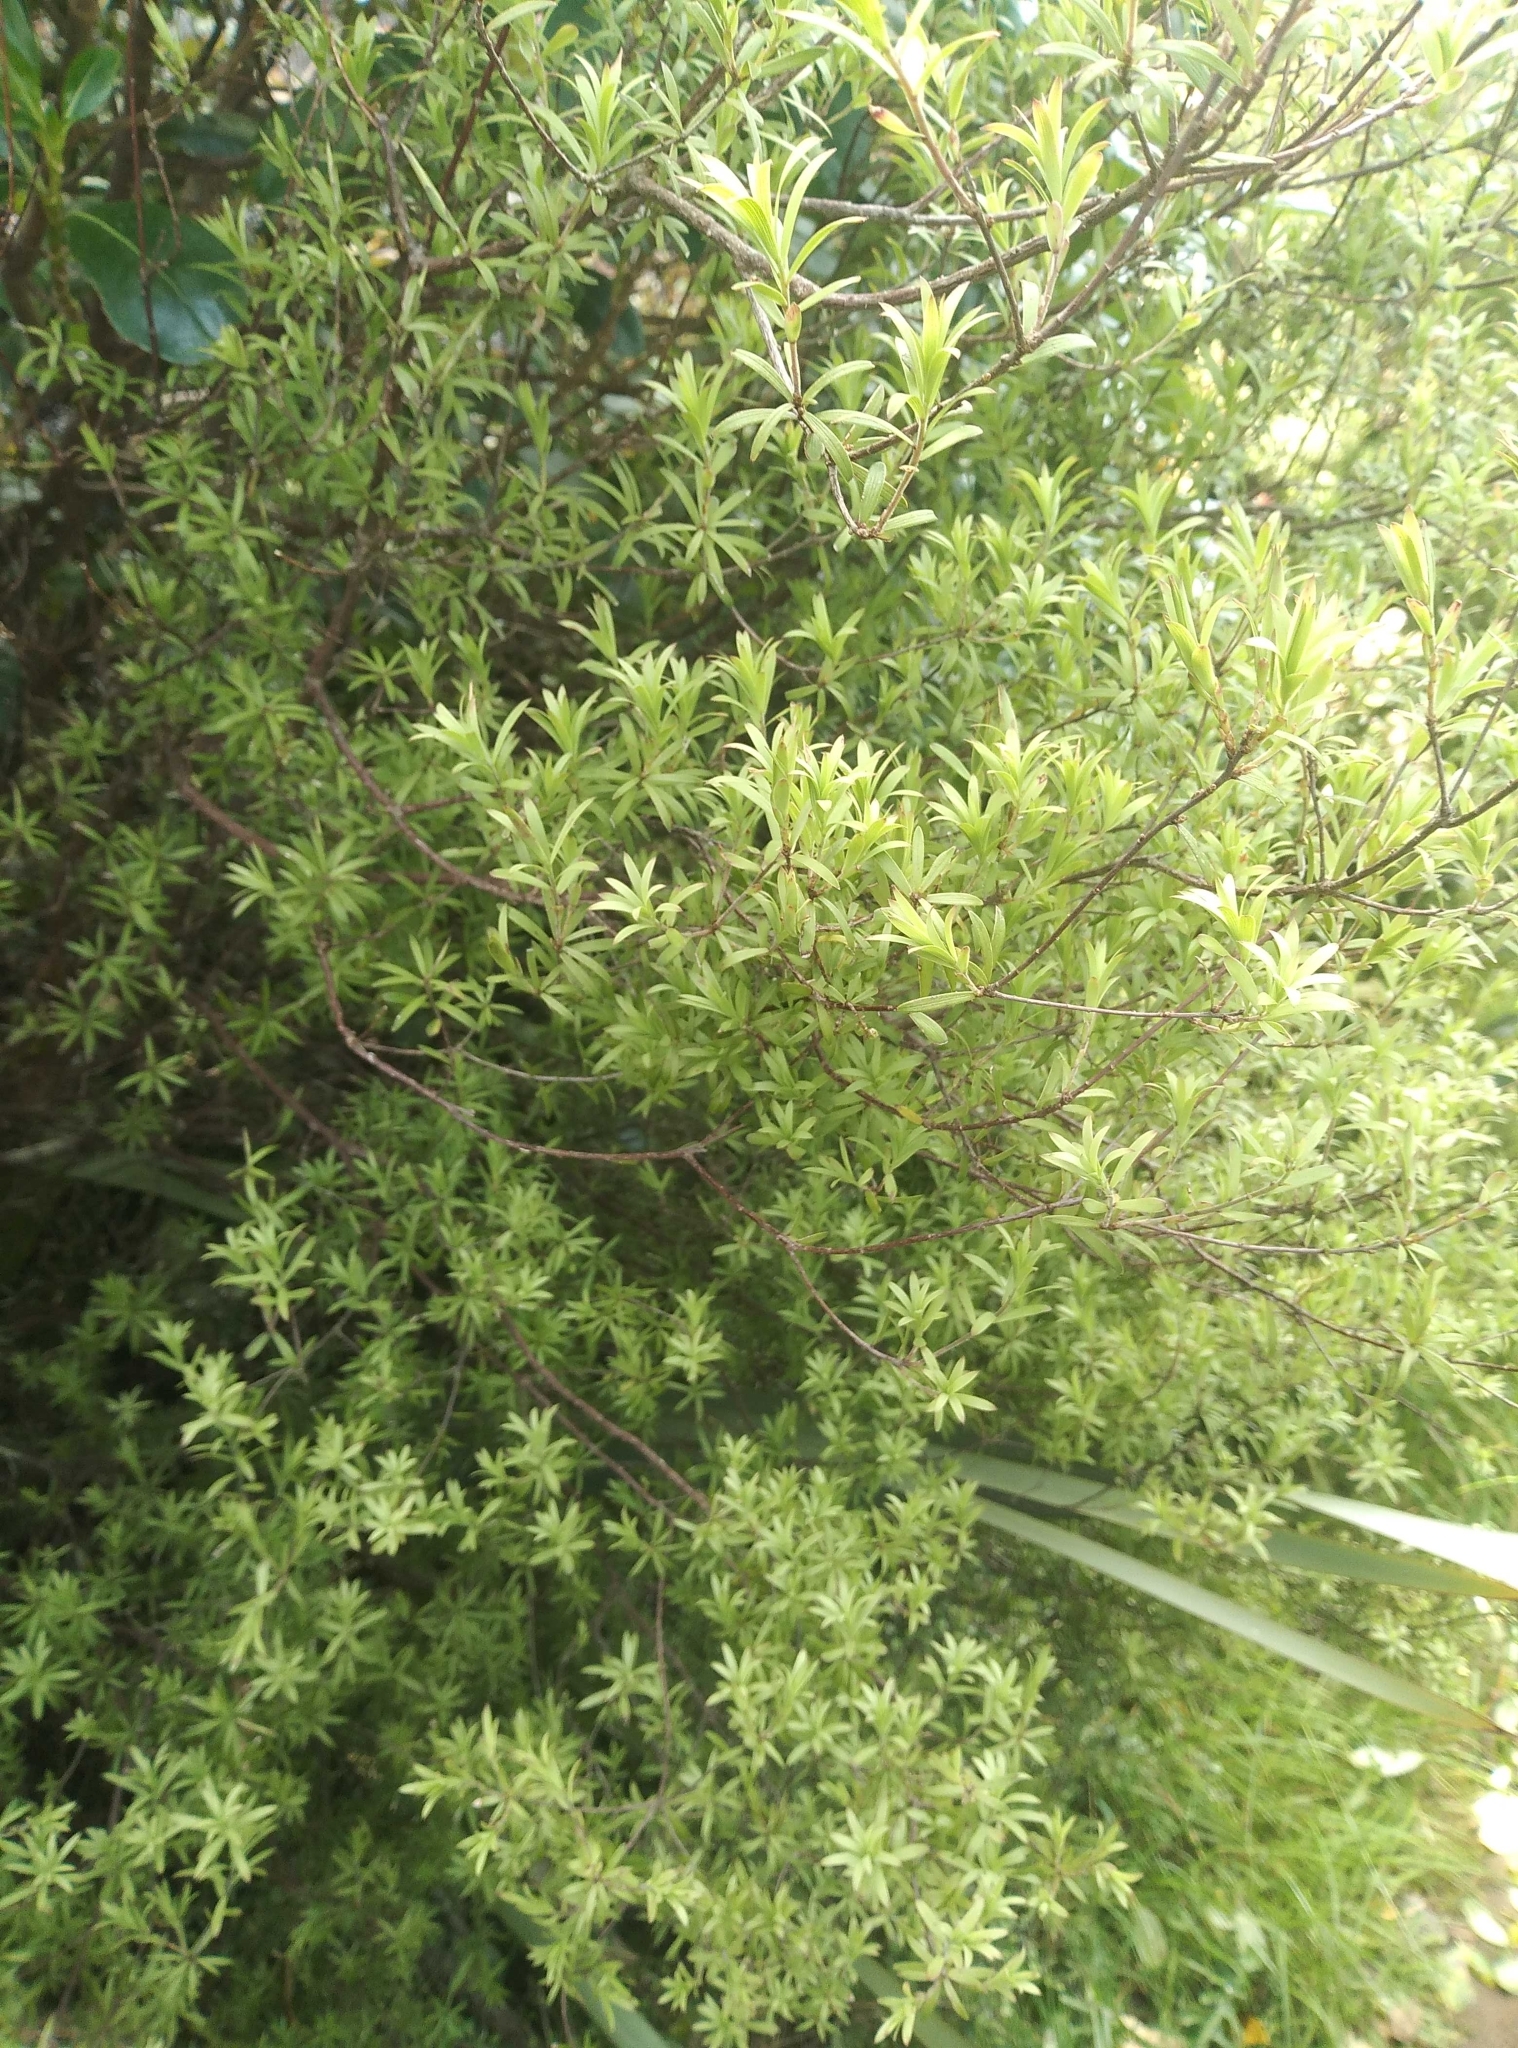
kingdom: Plantae
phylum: Tracheophyta
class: Magnoliopsida
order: Ericales
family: Ericaceae
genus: Leucopogon
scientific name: Leucopogon fasciculatus
